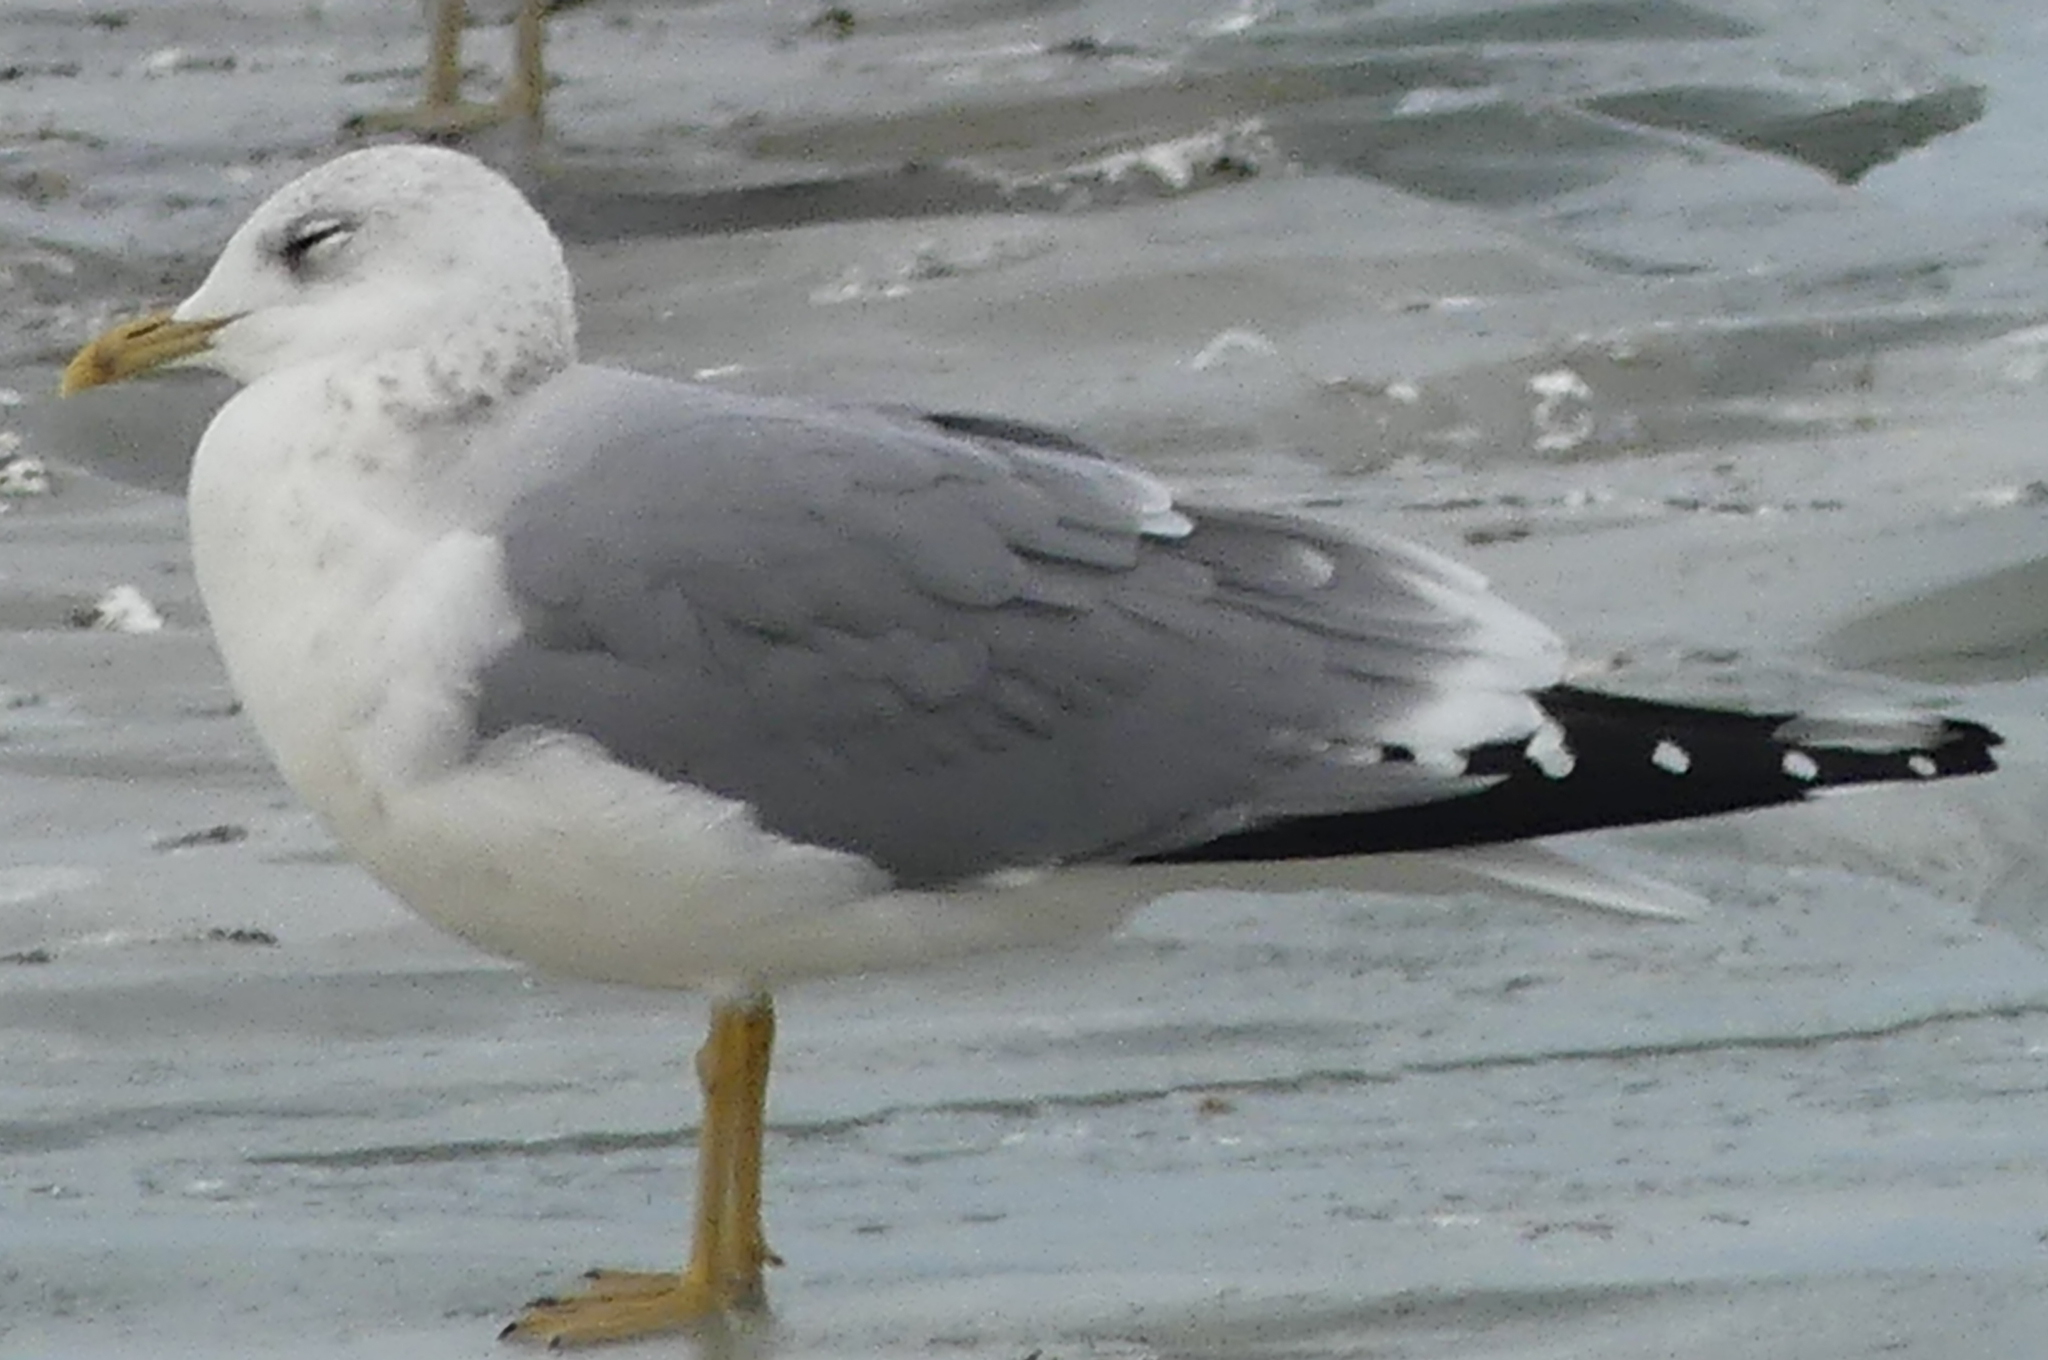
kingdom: Animalia
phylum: Chordata
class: Aves
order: Charadriiformes
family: Laridae
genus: Larus
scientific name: Larus canus
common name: Mew gull
